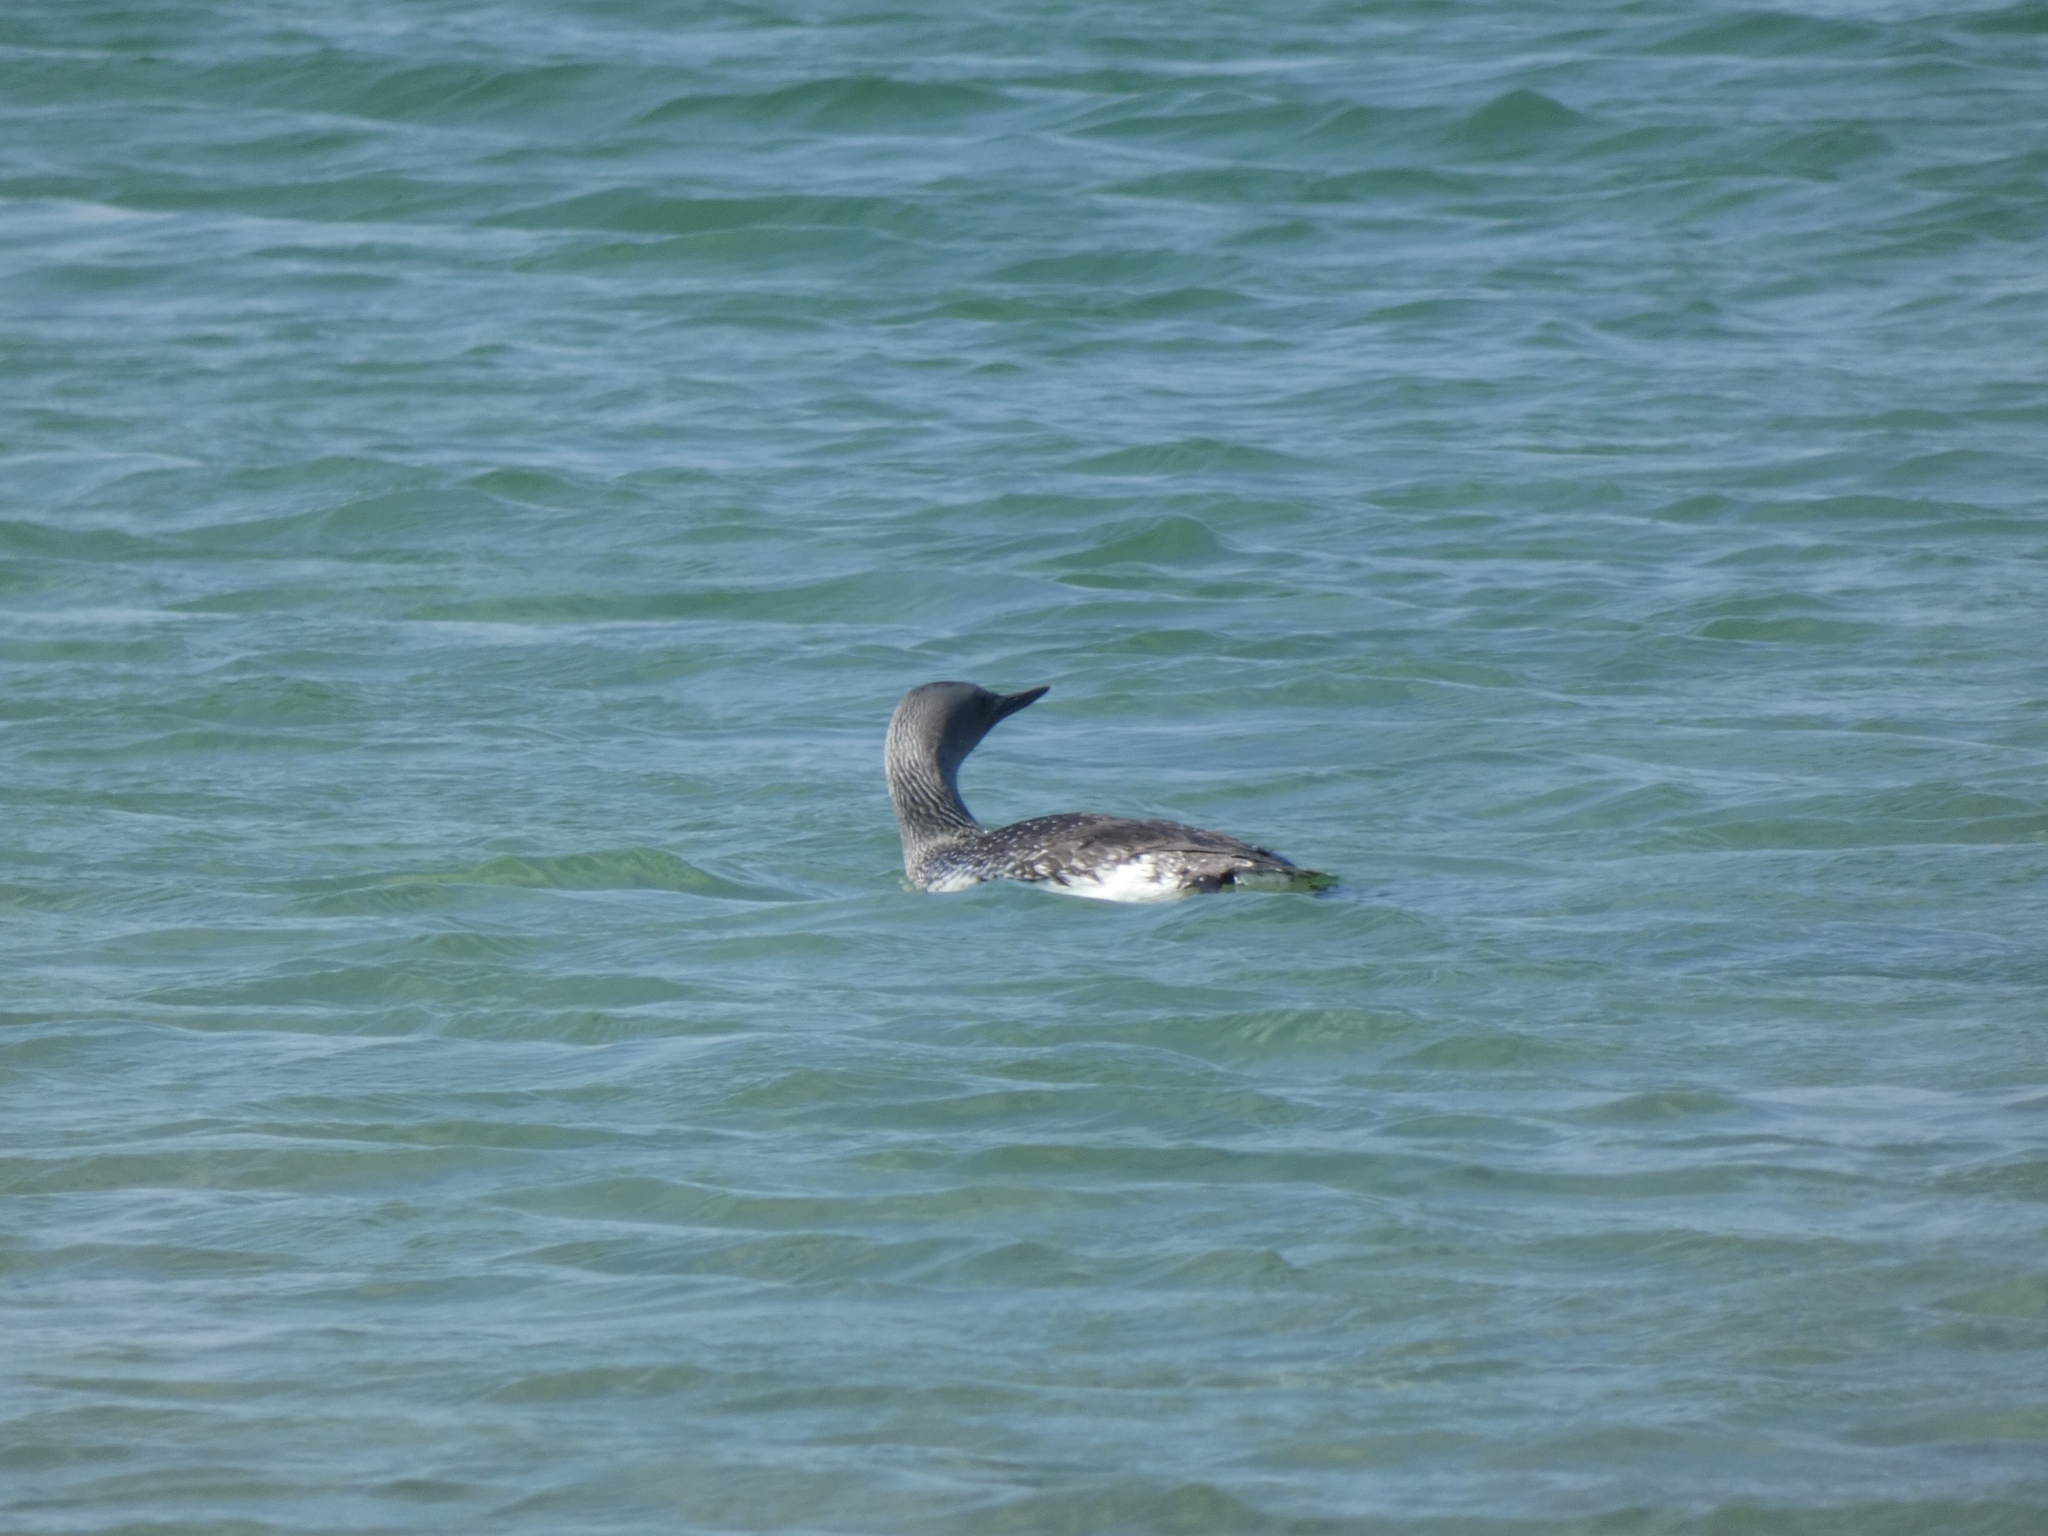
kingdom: Animalia
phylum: Chordata
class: Aves
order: Gaviiformes
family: Gaviidae
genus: Gavia
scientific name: Gavia stellata
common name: Red-throated loon
